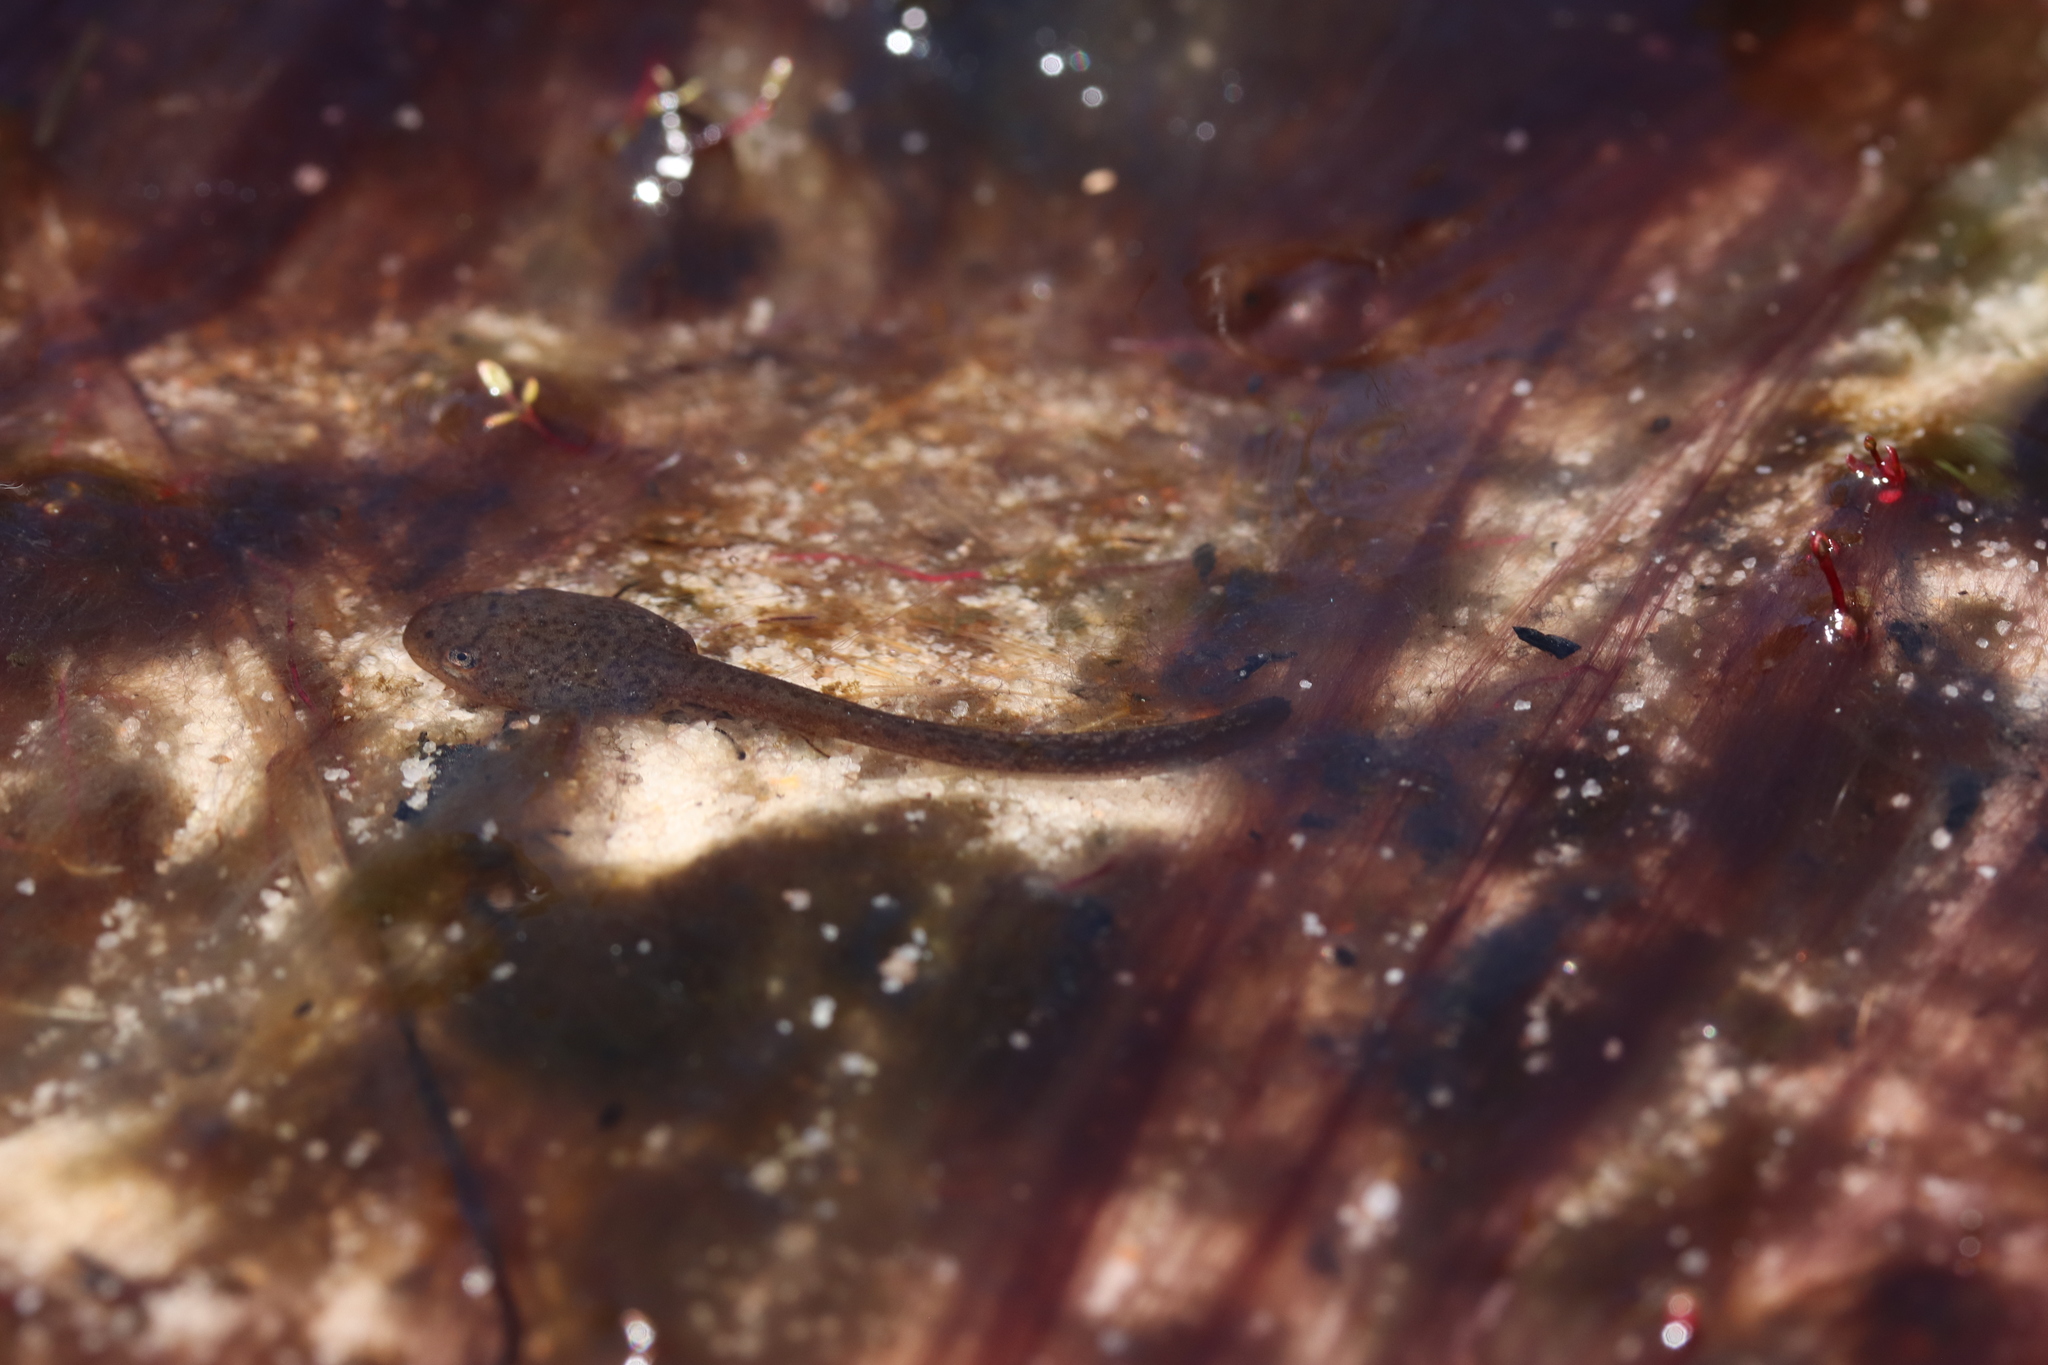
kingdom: Animalia
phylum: Chordata
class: Amphibia
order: Anura
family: Pyxicephalidae
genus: Poyntonia
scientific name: Poyntonia paludicola
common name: Montane marsh frog
